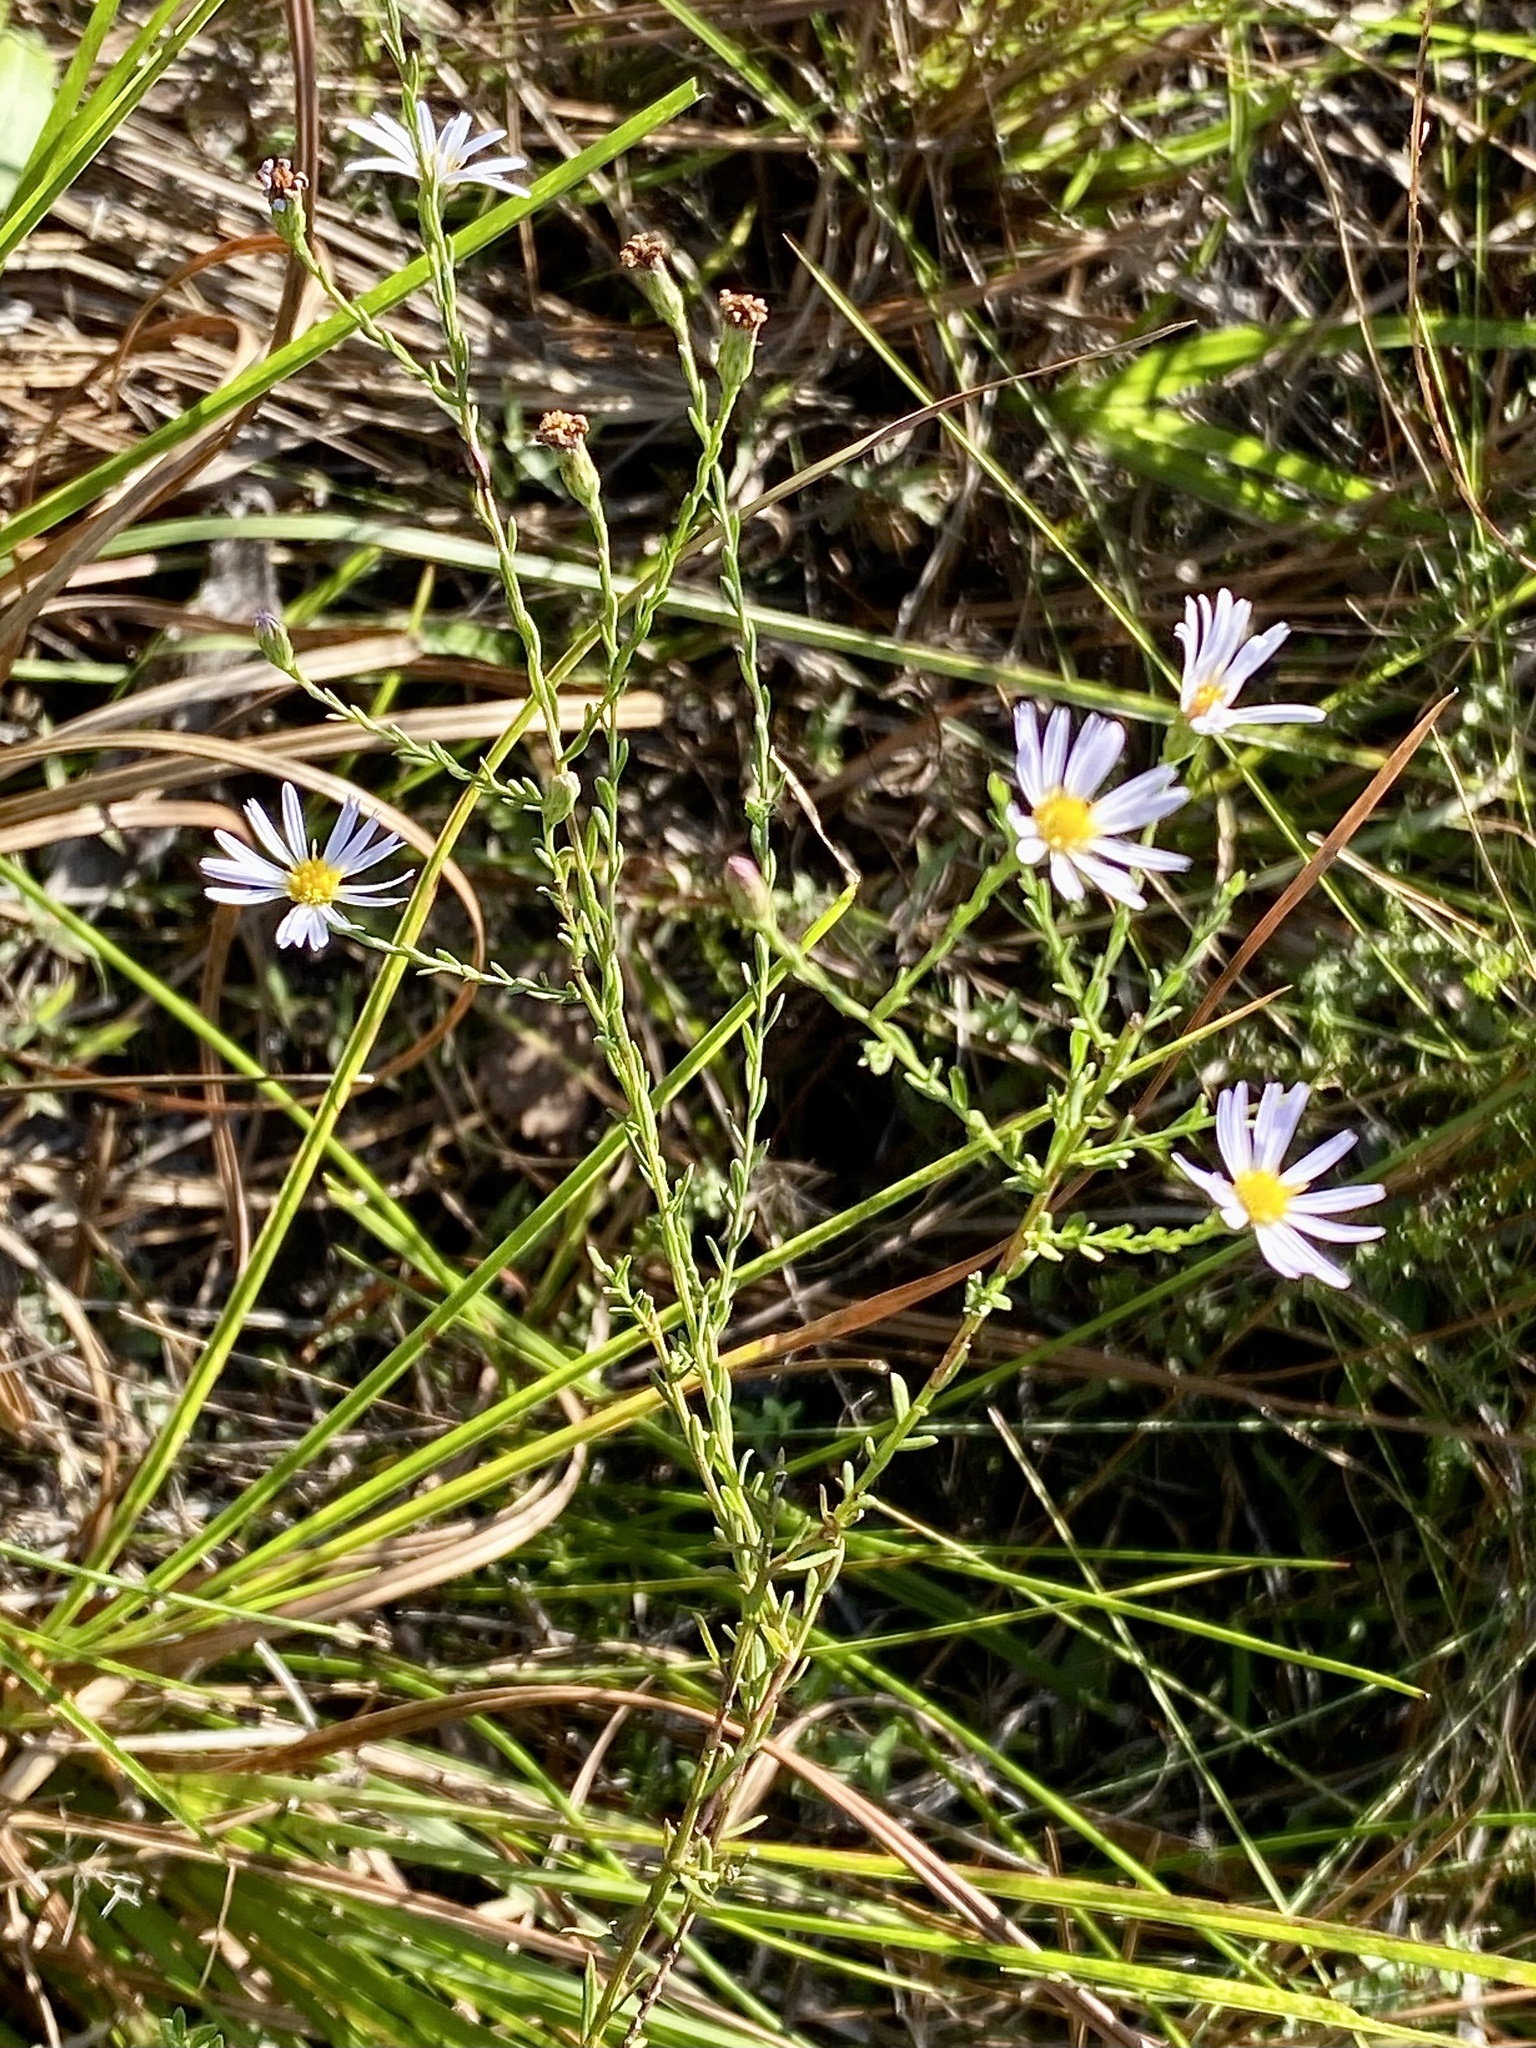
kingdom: Plantae
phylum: Tracheophyta
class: Magnoliopsida
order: Asterales
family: Asteraceae
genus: Symphyotrichum
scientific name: Symphyotrichum dumosum
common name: Bushy aster
